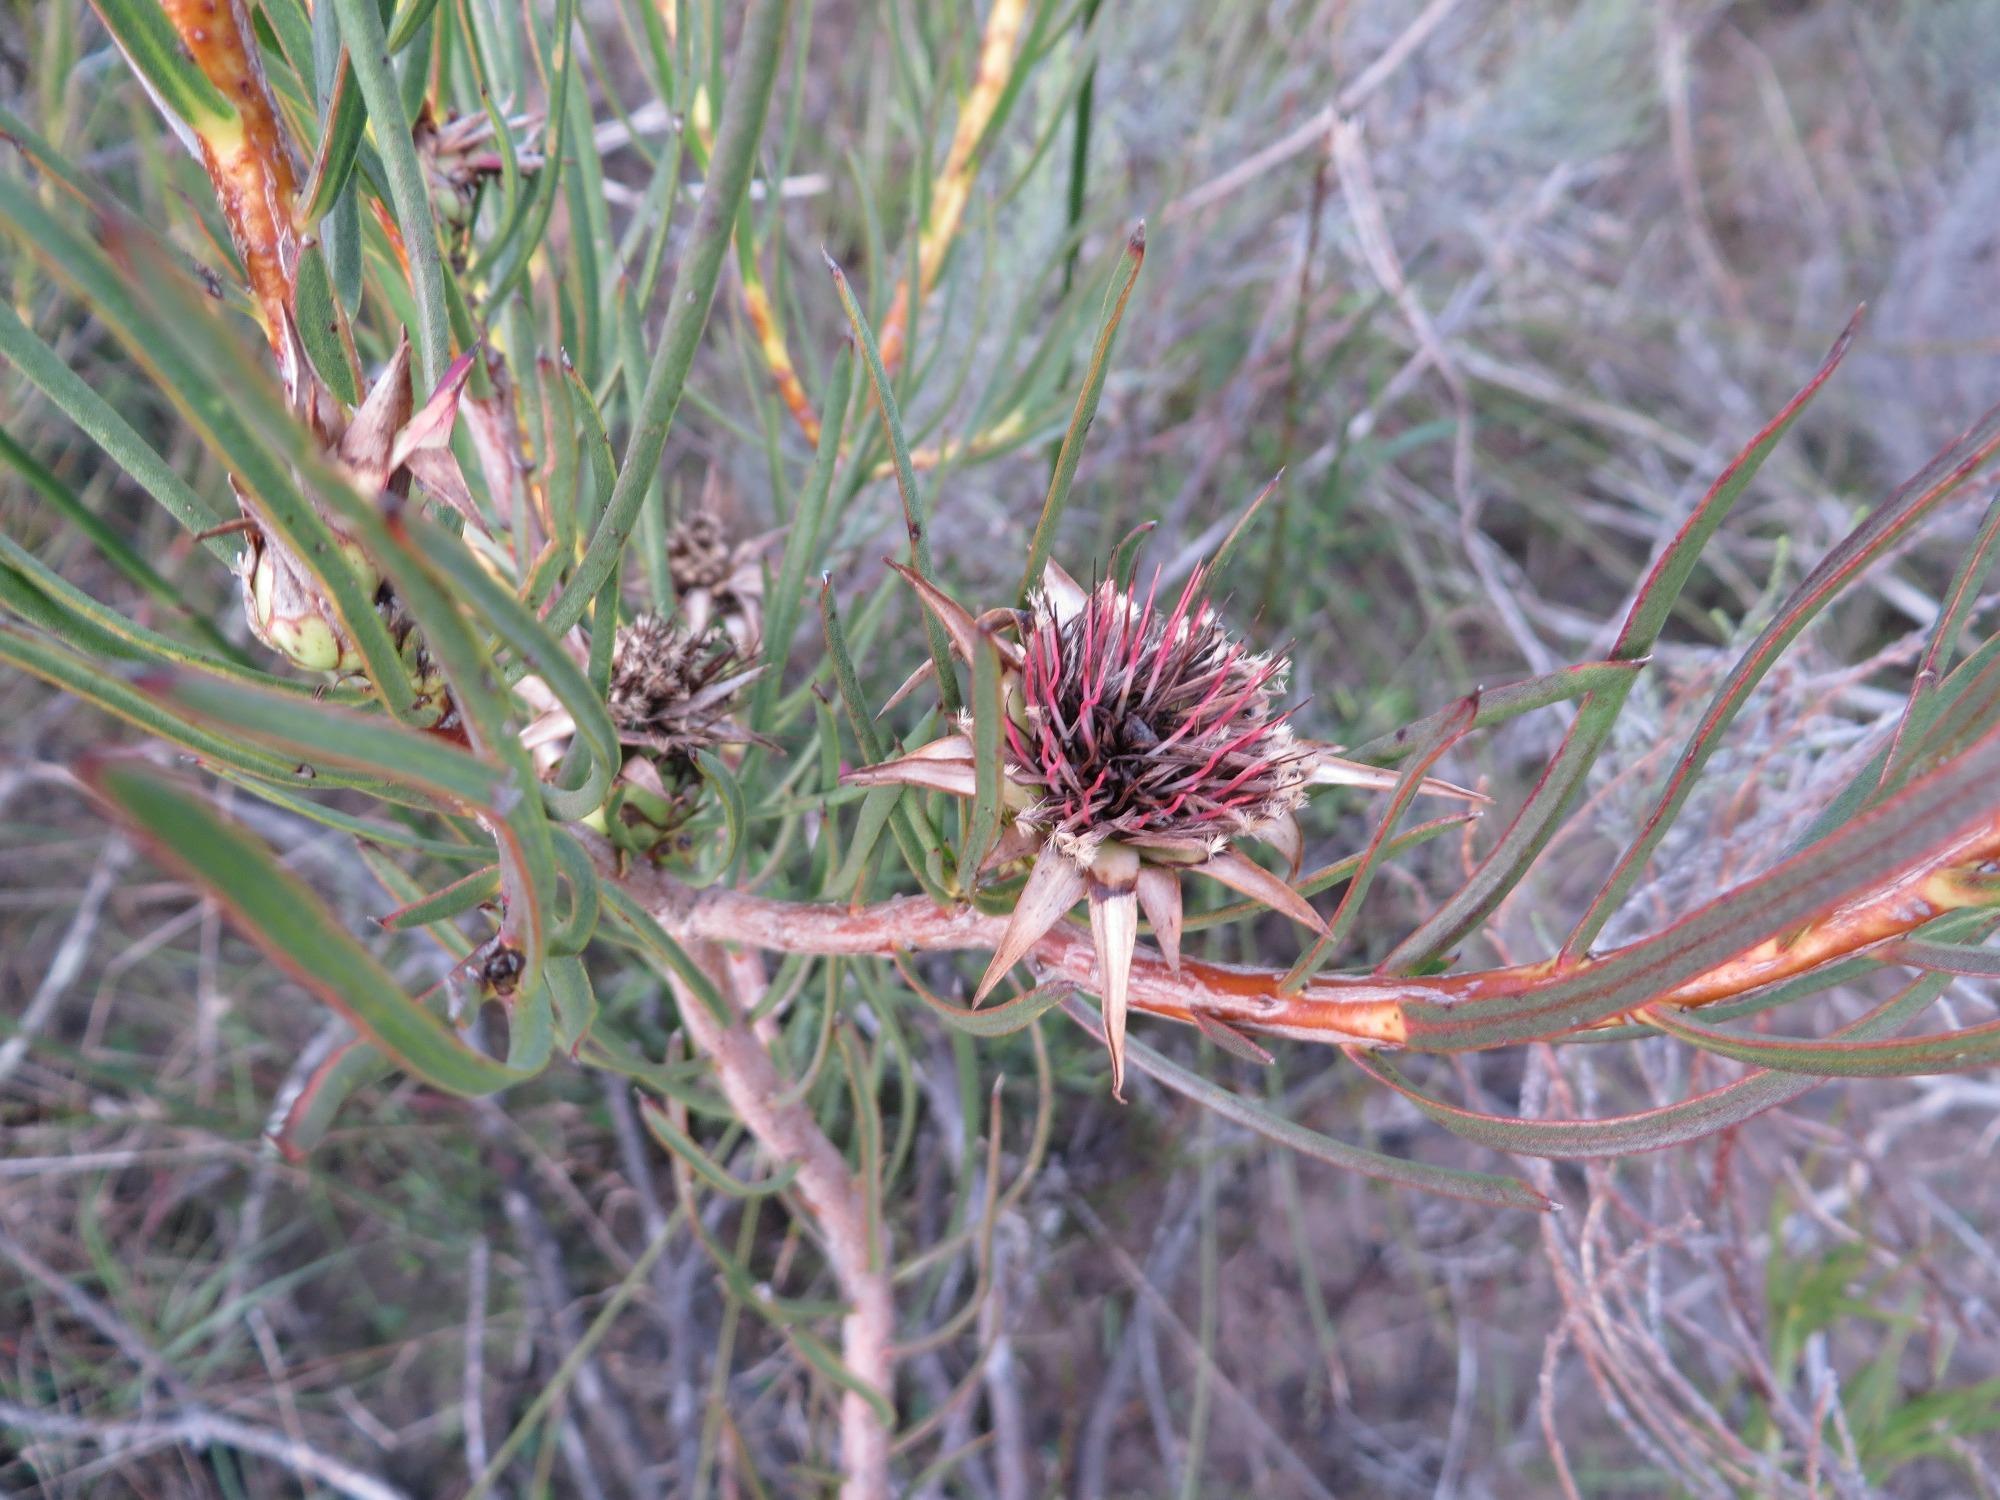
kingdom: Plantae
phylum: Tracheophyta
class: Magnoliopsida
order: Proteales
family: Proteaceae
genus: Protea
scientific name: Protea odorata
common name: Swartland sugarbush
